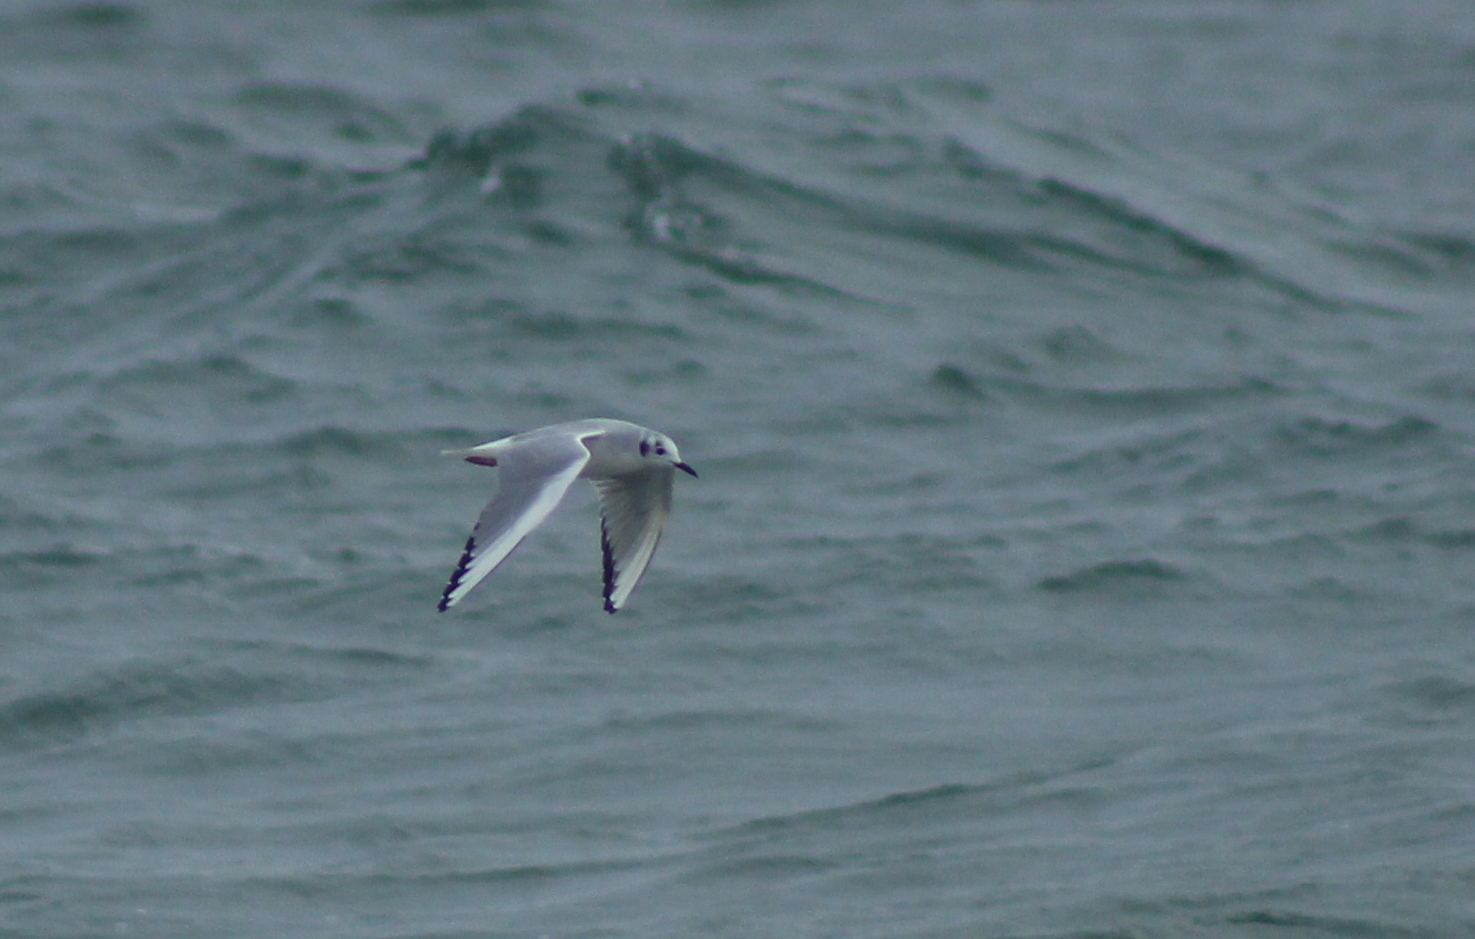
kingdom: Animalia
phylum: Chordata
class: Aves
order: Charadriiformes
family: Laridae
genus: Chroicocephalus
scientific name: Chroicocephalus philadelphia
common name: Bonaparte's gull
